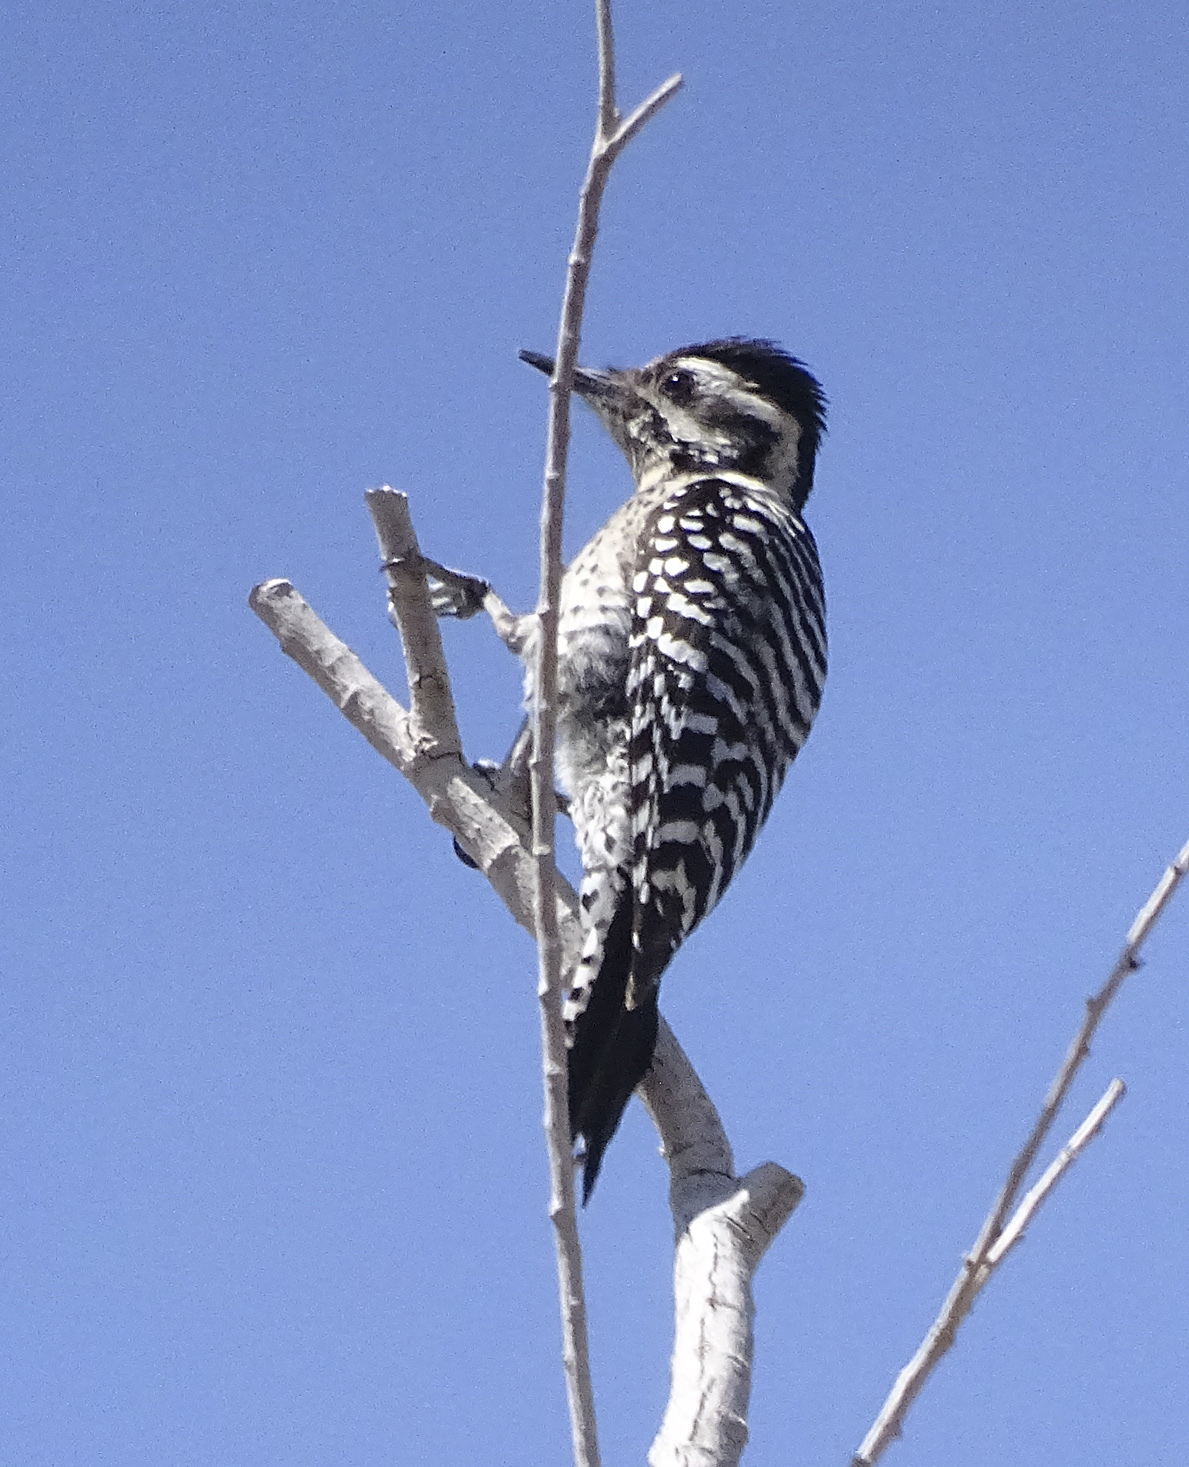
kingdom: Animalia
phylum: Chordata
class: Aves
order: Piciformes
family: Picidae
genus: Dryobates
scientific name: Dryobates scalaris
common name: Ladder-backed woodpecker
